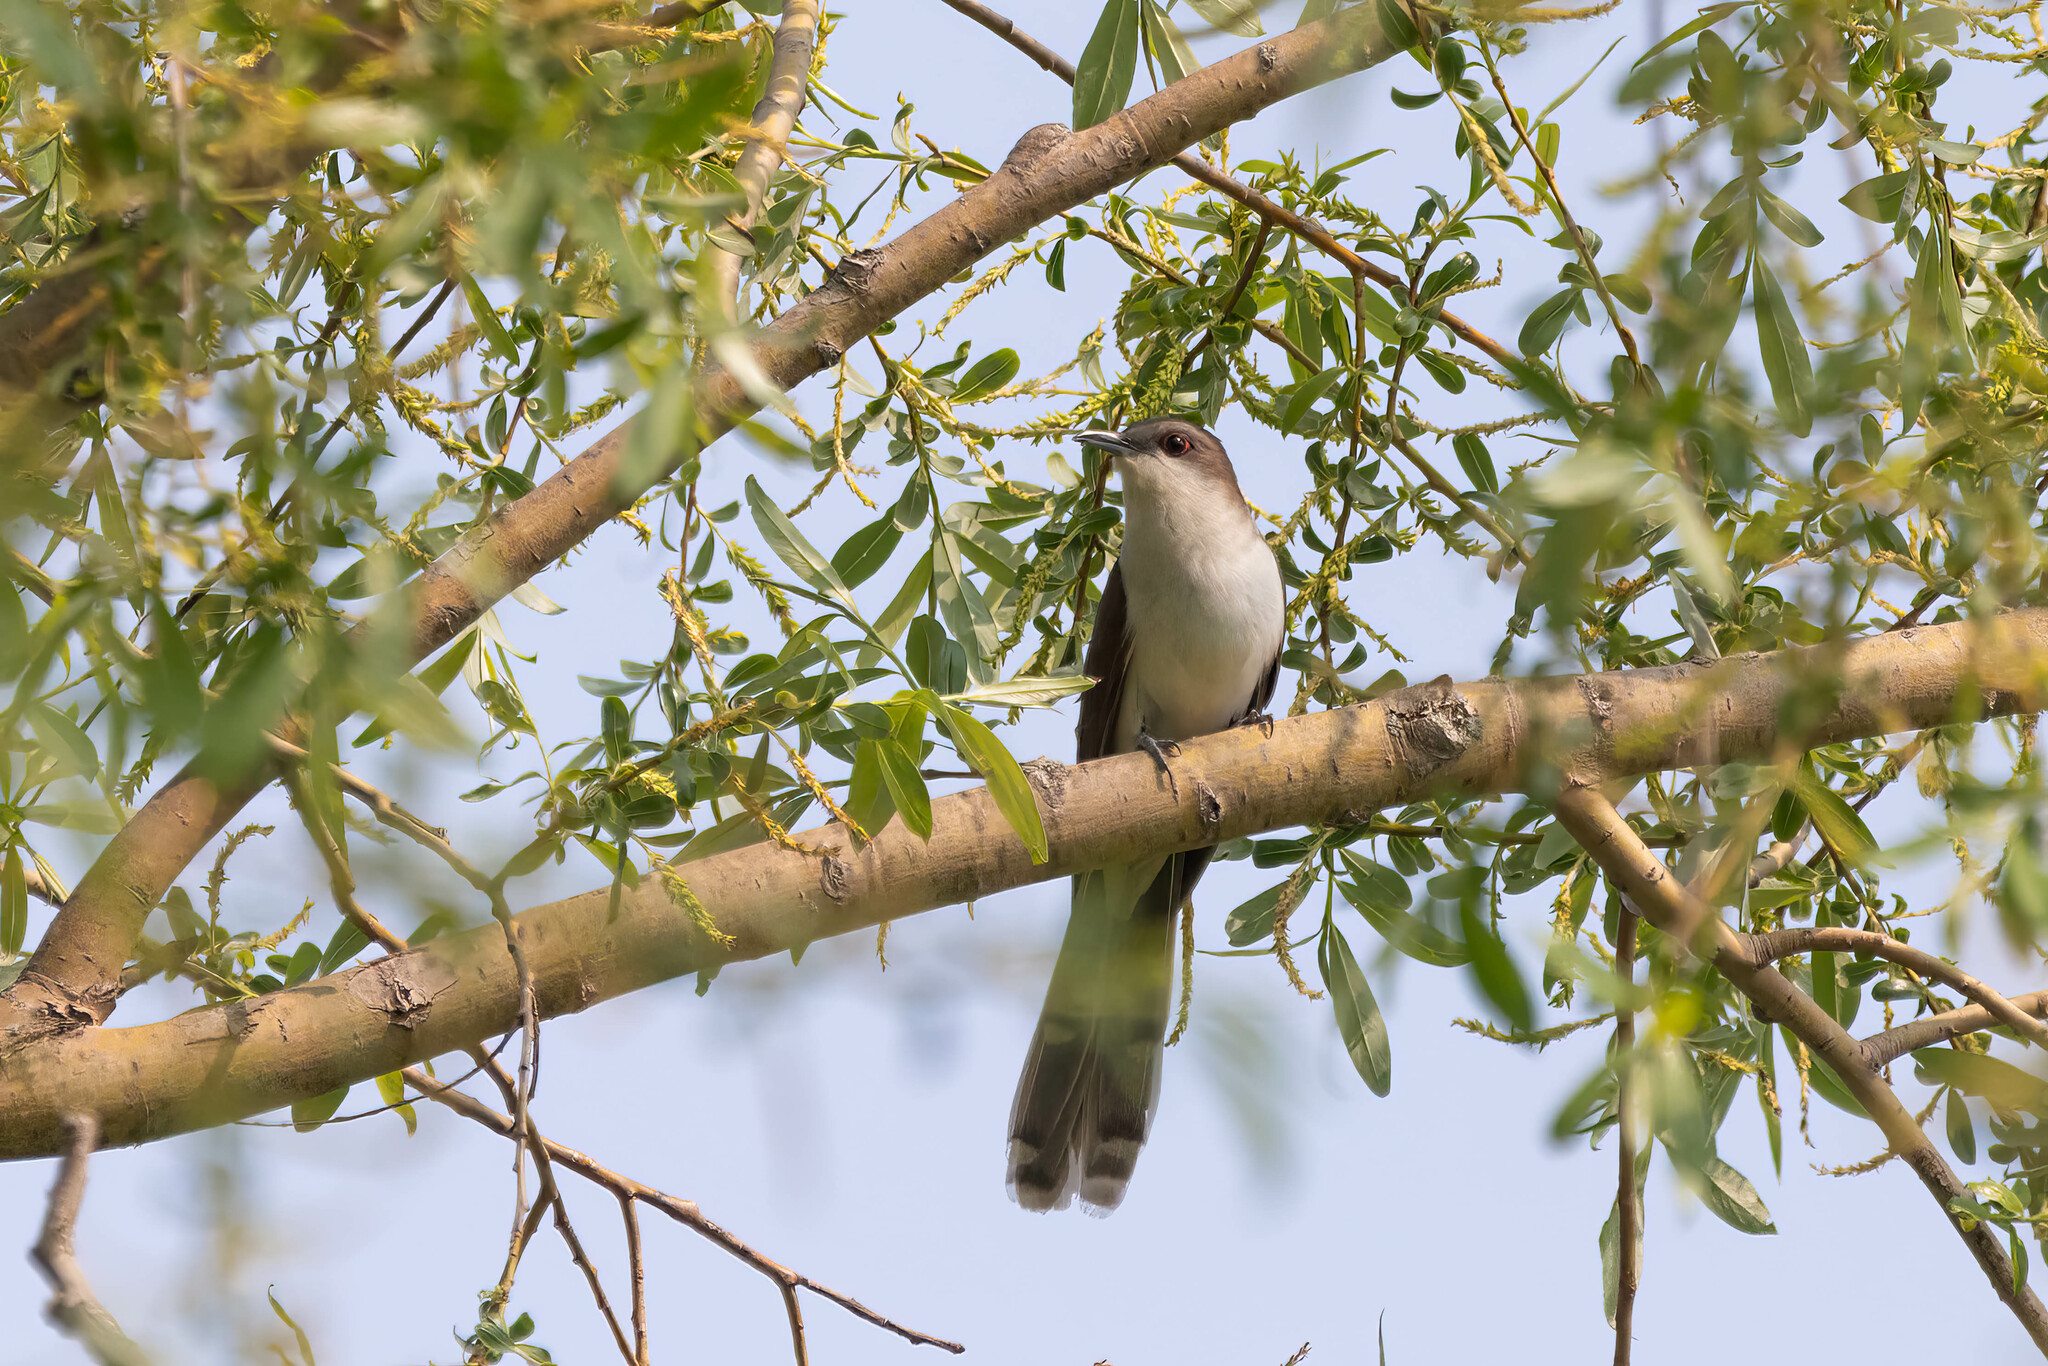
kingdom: Animalia
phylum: Chordata
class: Aves
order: Cuculiformes
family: Cuculidae
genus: Coccyzus
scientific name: Coccyzus erythropthalmus
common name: Black-billed cuckoo
